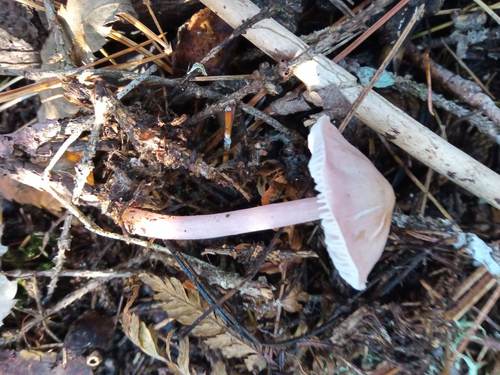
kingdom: Fungi
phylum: Basidiomycota
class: Agaricomycetes
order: Agaricales
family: Mycenaceae
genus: Mycena
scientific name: Mycena pura
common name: Lilac bonnet
